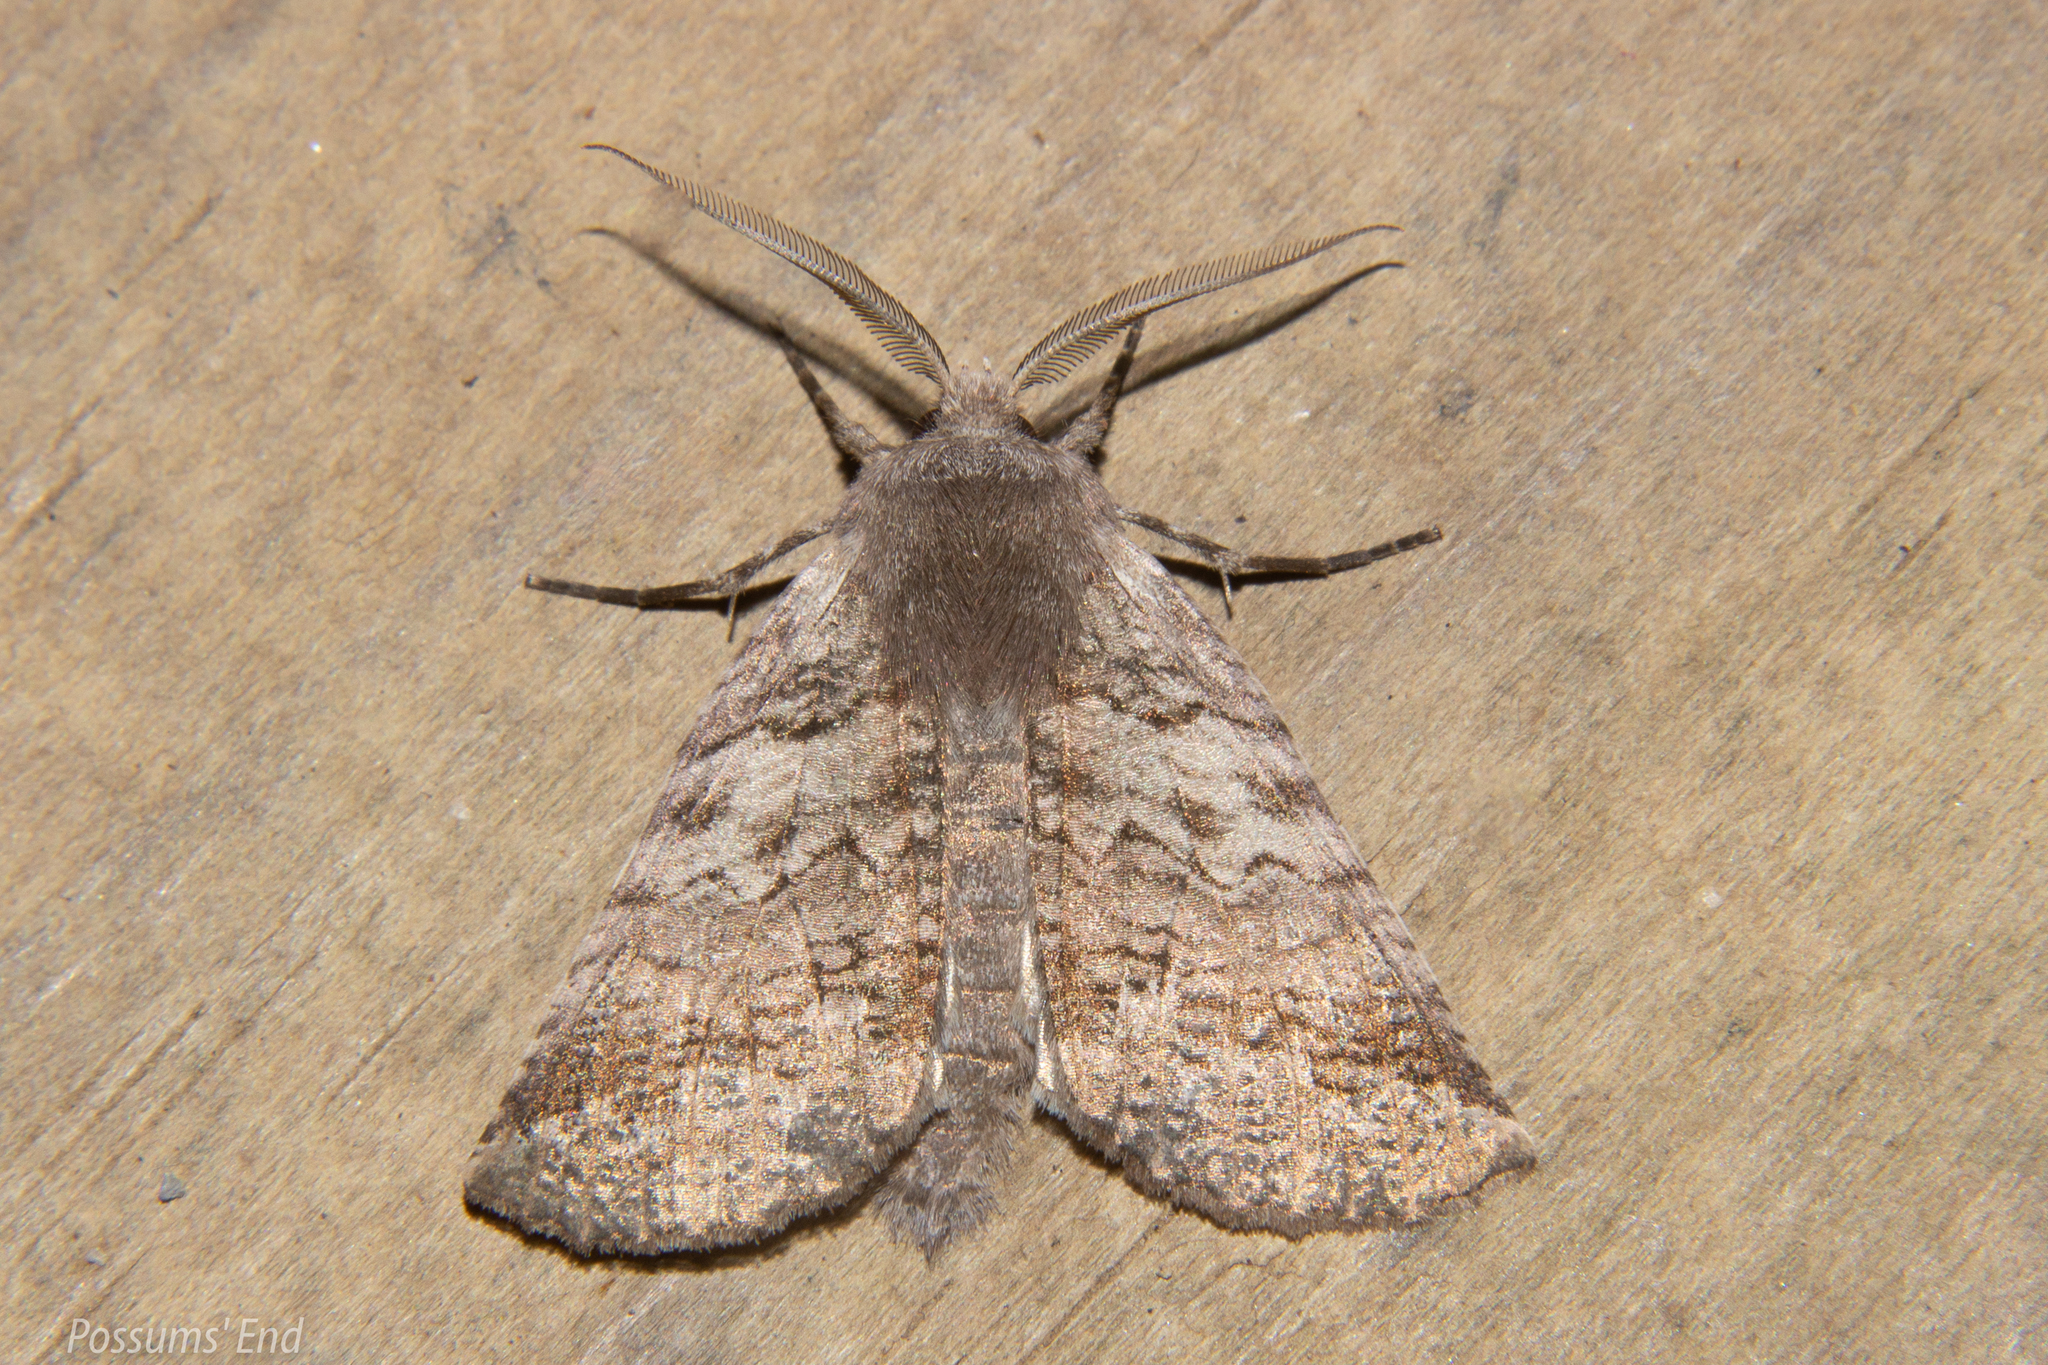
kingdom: Animalia
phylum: Arthropoda
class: Insecta
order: Lepidoptera
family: Geometridae
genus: Declana
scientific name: Declana
